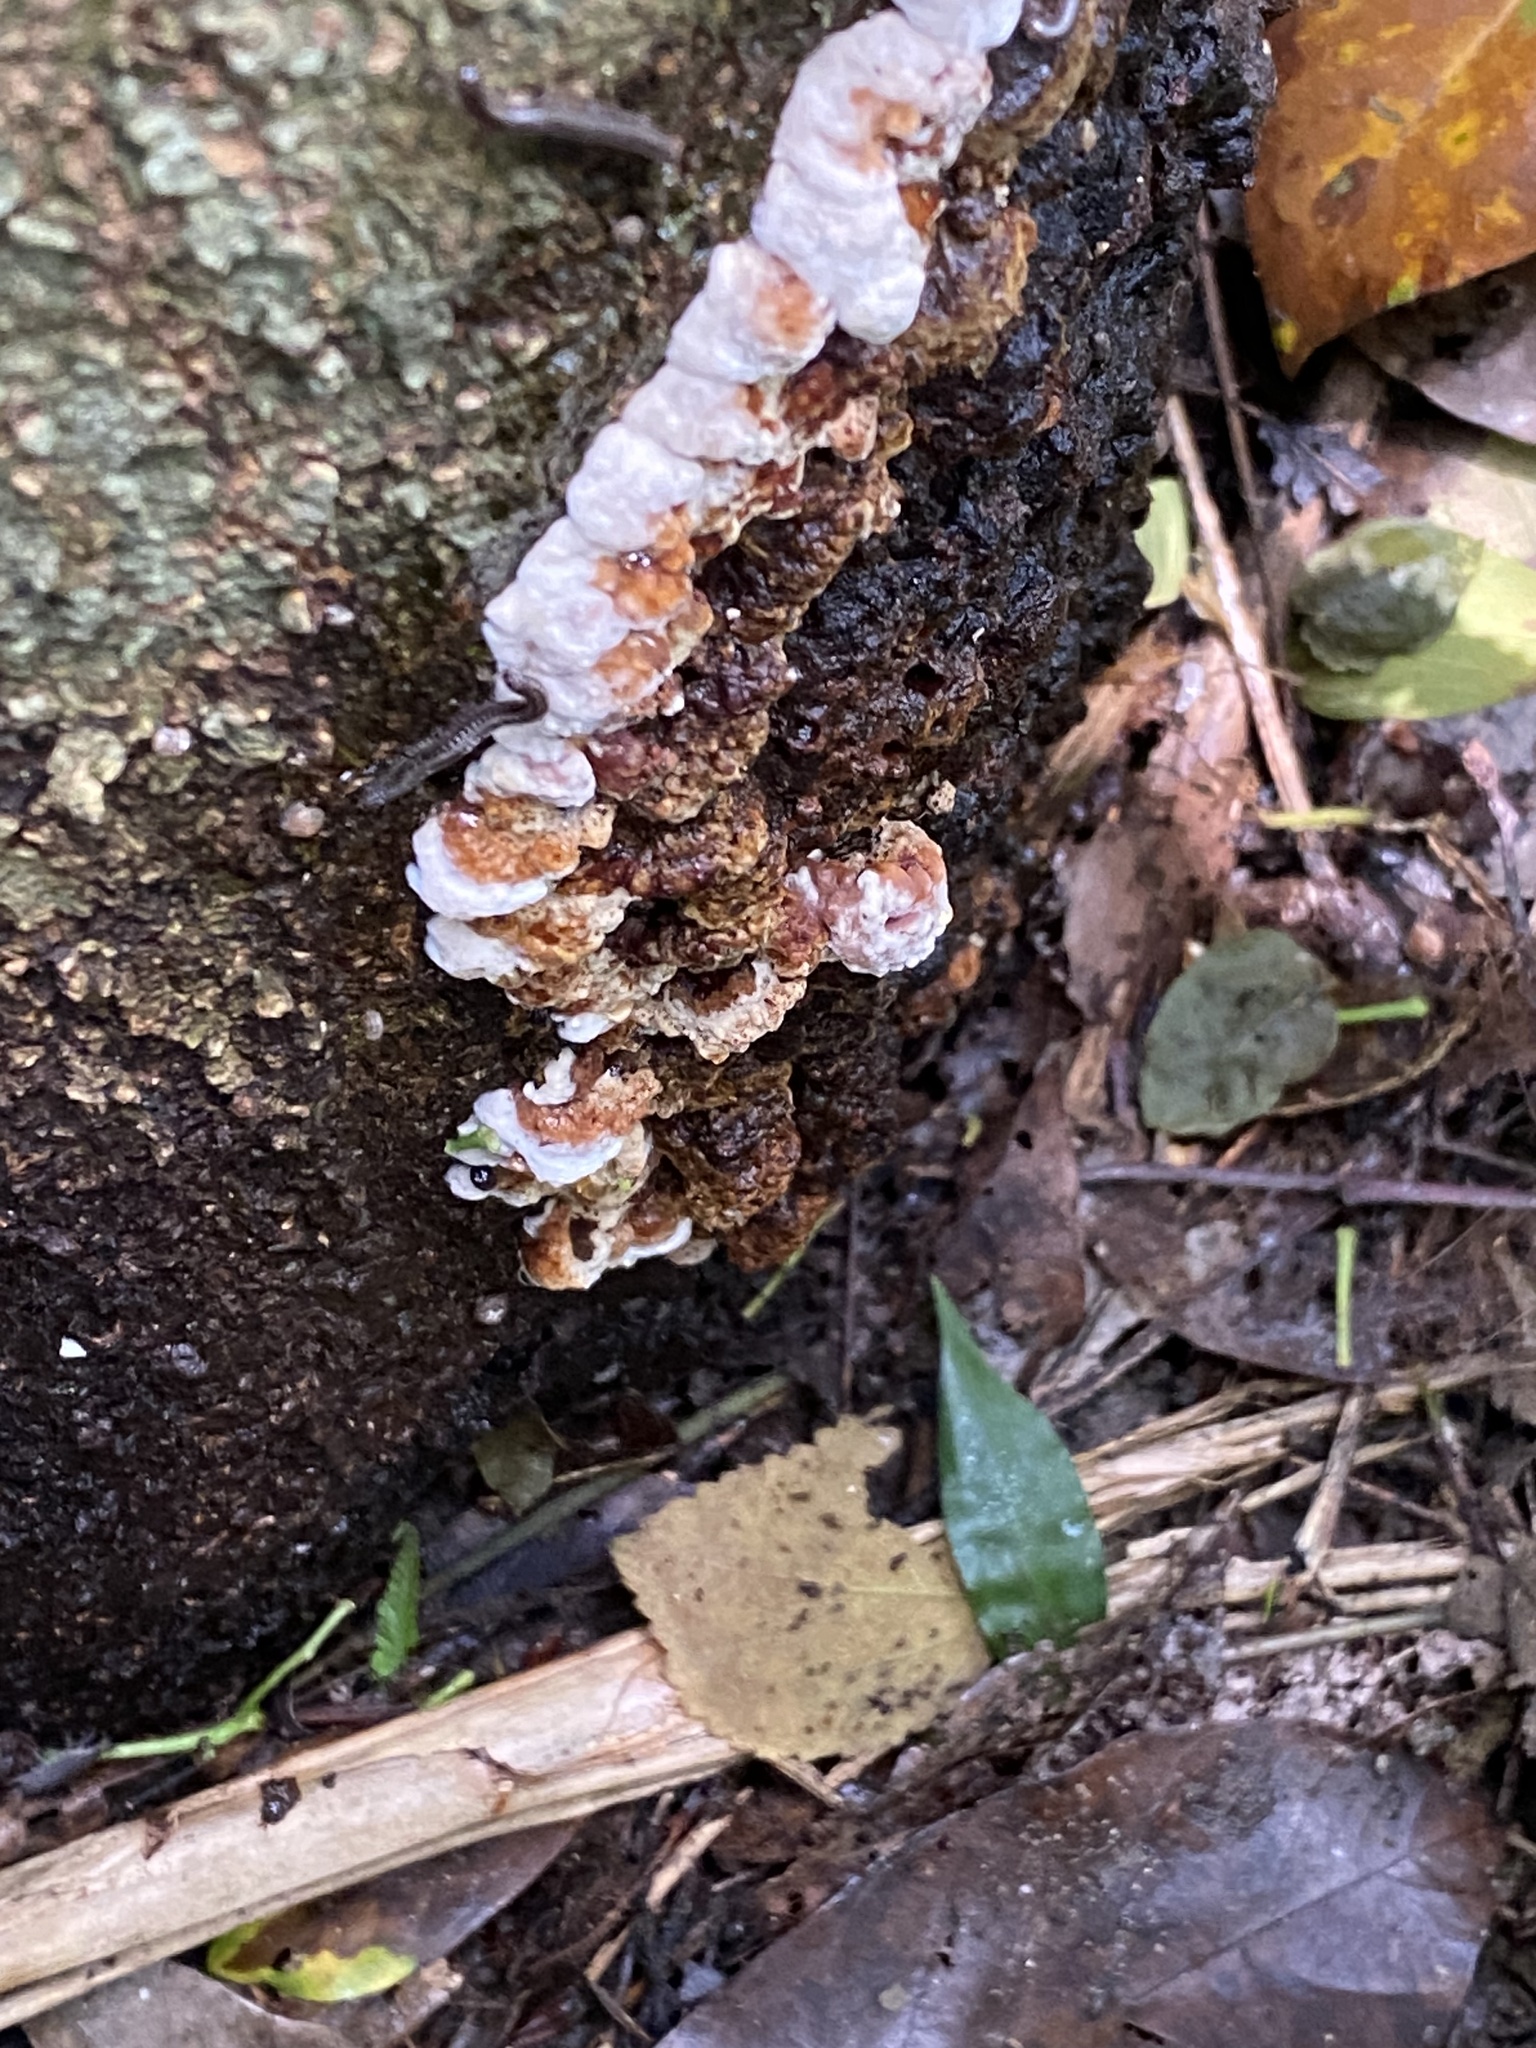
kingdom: Fungi
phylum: Basidiomycota
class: Agaricomycetes
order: Hymenochaetales
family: Hymenochaetaceae
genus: Pyrrhoderma
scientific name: Pyrrhoderma noxium
